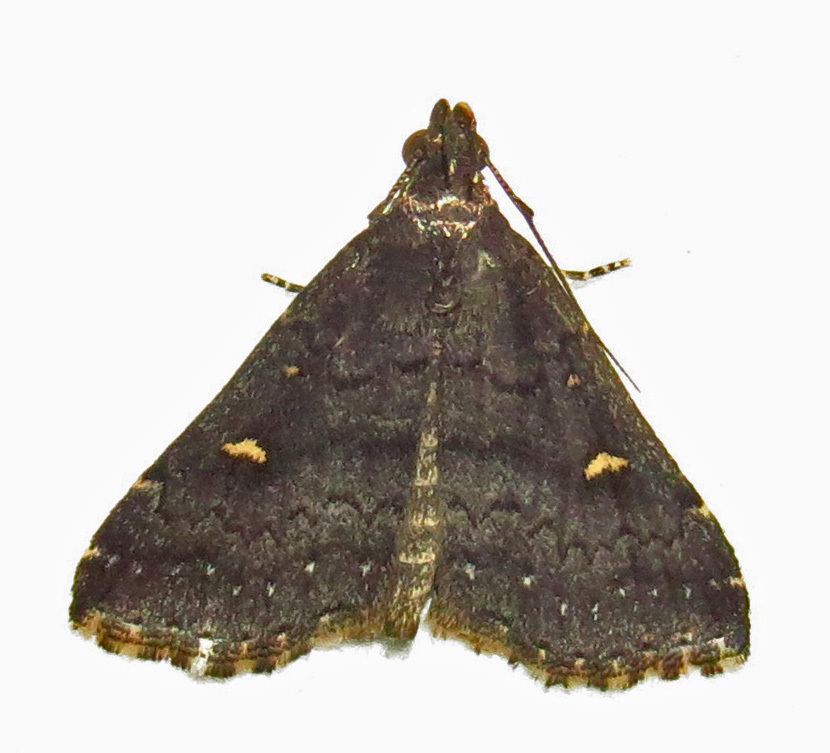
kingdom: Animalia
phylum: Arthropoda
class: Insecta
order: Lepidoptera
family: Erebidae
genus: Tetanolita
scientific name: Tetanolita mynesalis
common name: Smoky tetanolita moth
